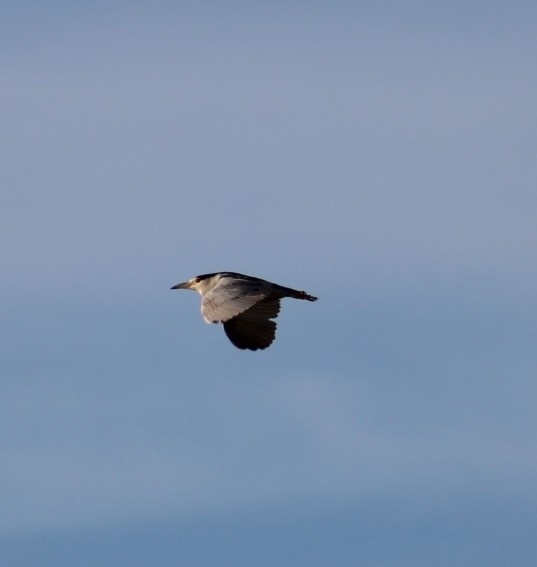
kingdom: Animalia
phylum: Chordata
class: Aves
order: Pelecaniformes
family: Ardeidae
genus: Nycticorax
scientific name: Nycticorax nycticorax
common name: Black-crowned night heron
